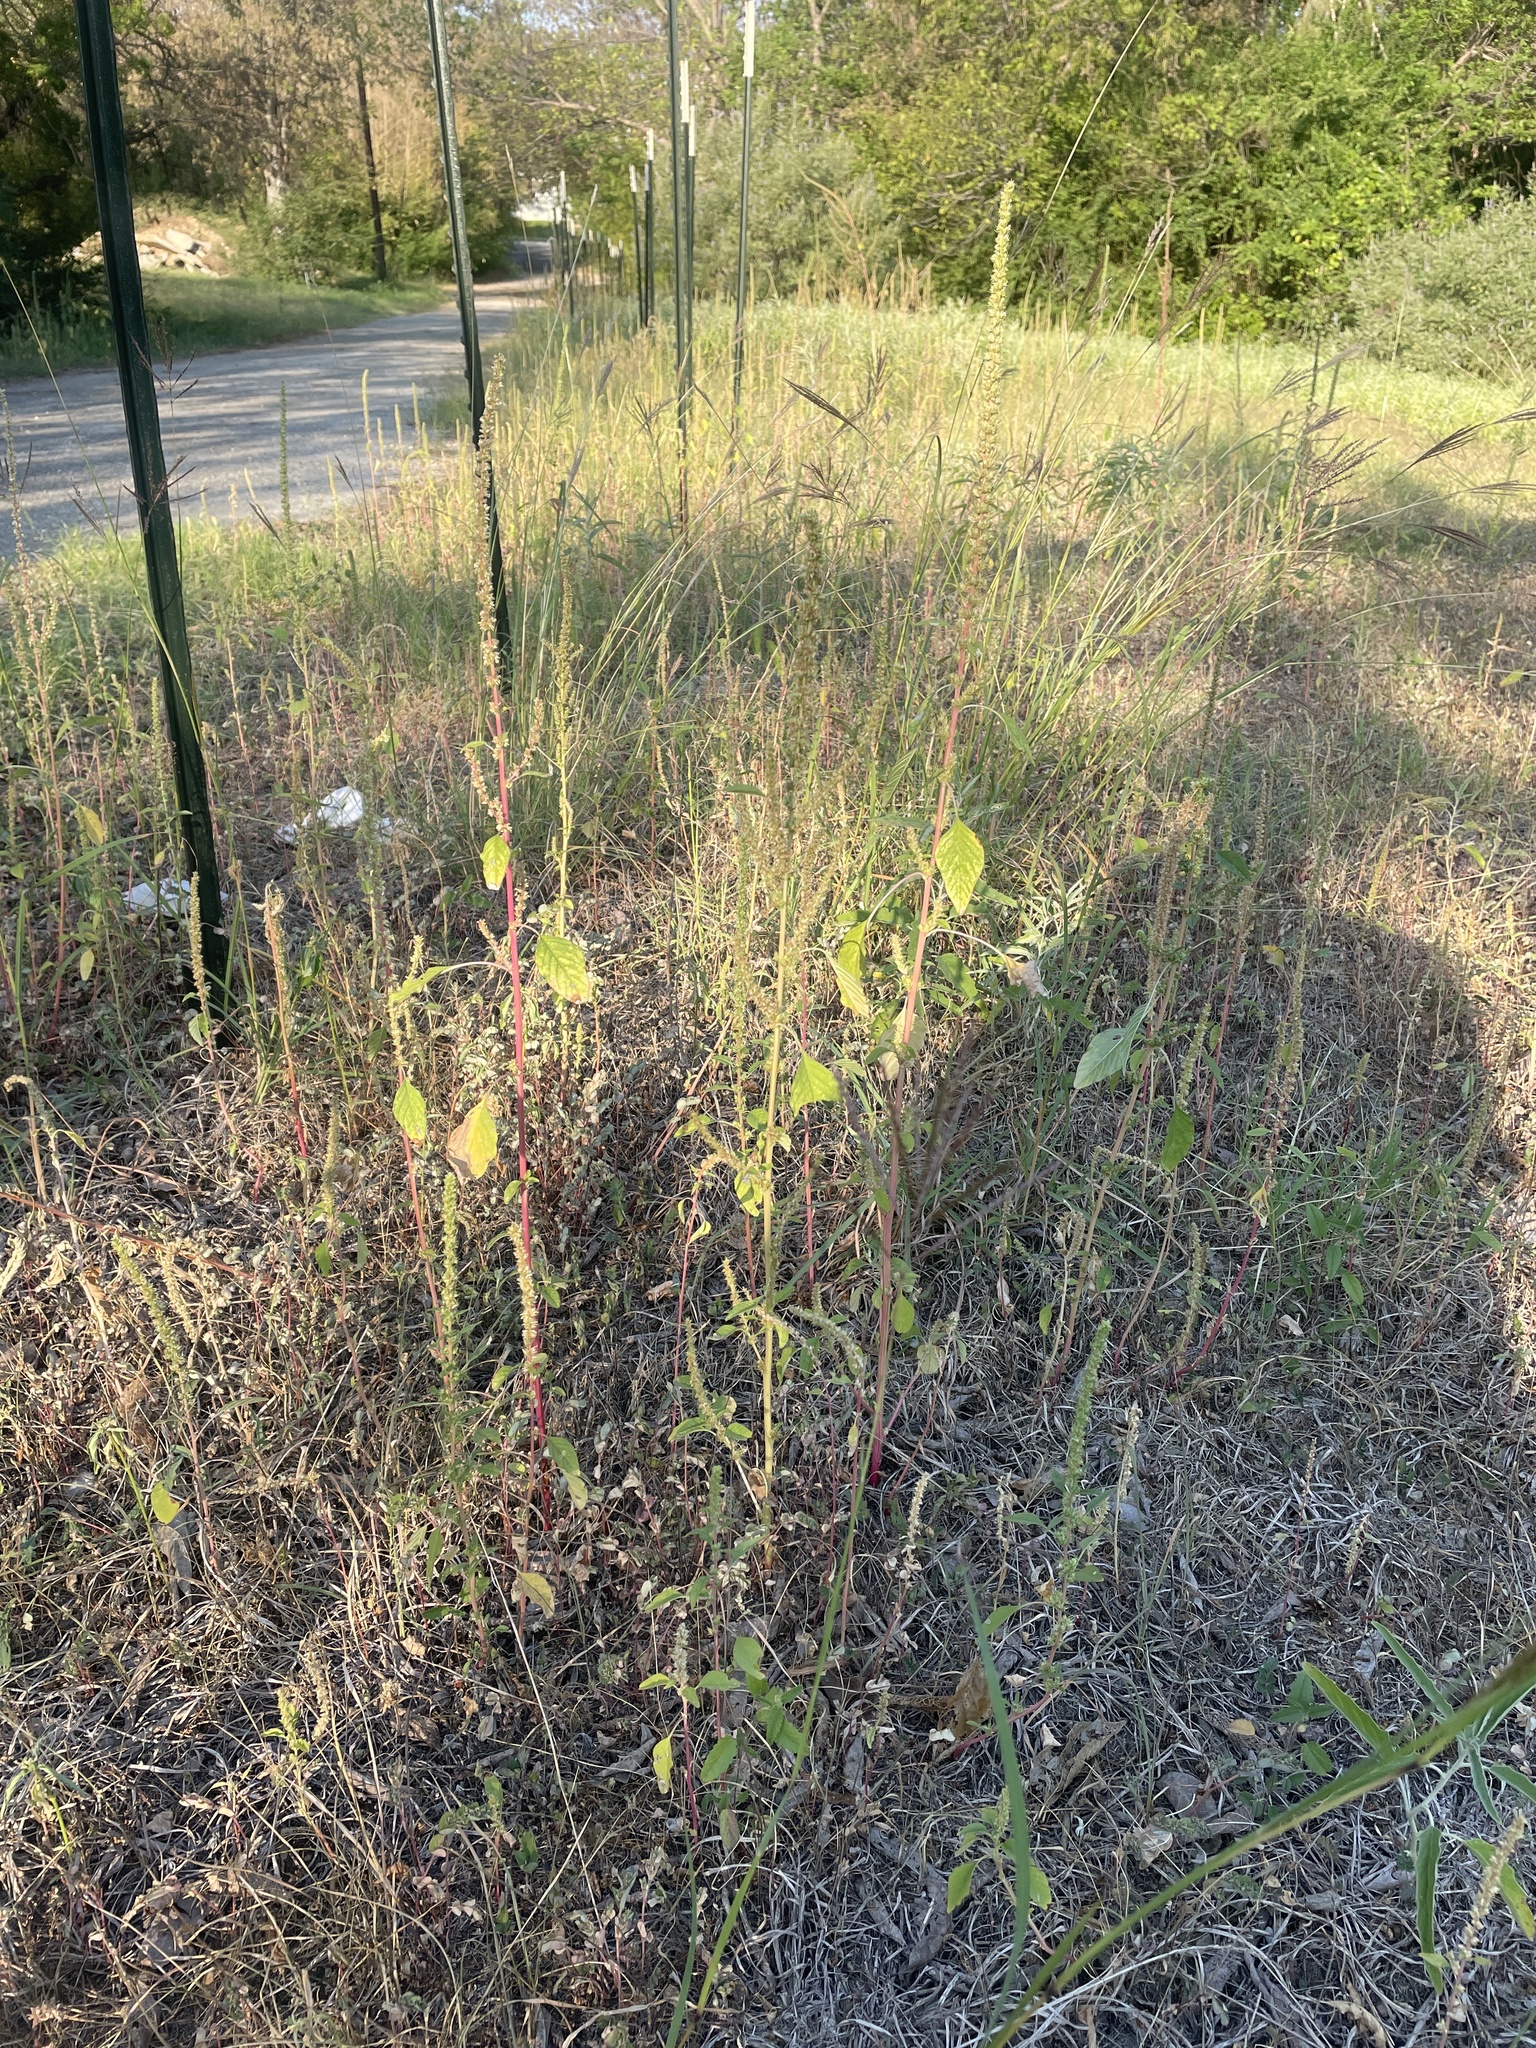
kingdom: Plantae
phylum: Tracheophyta
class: Magnoliopsida
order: Caryophyllales
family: Amaranthaceae
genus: Amaranthus
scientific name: Amaranthus palmeri
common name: Dioecious amaranth
